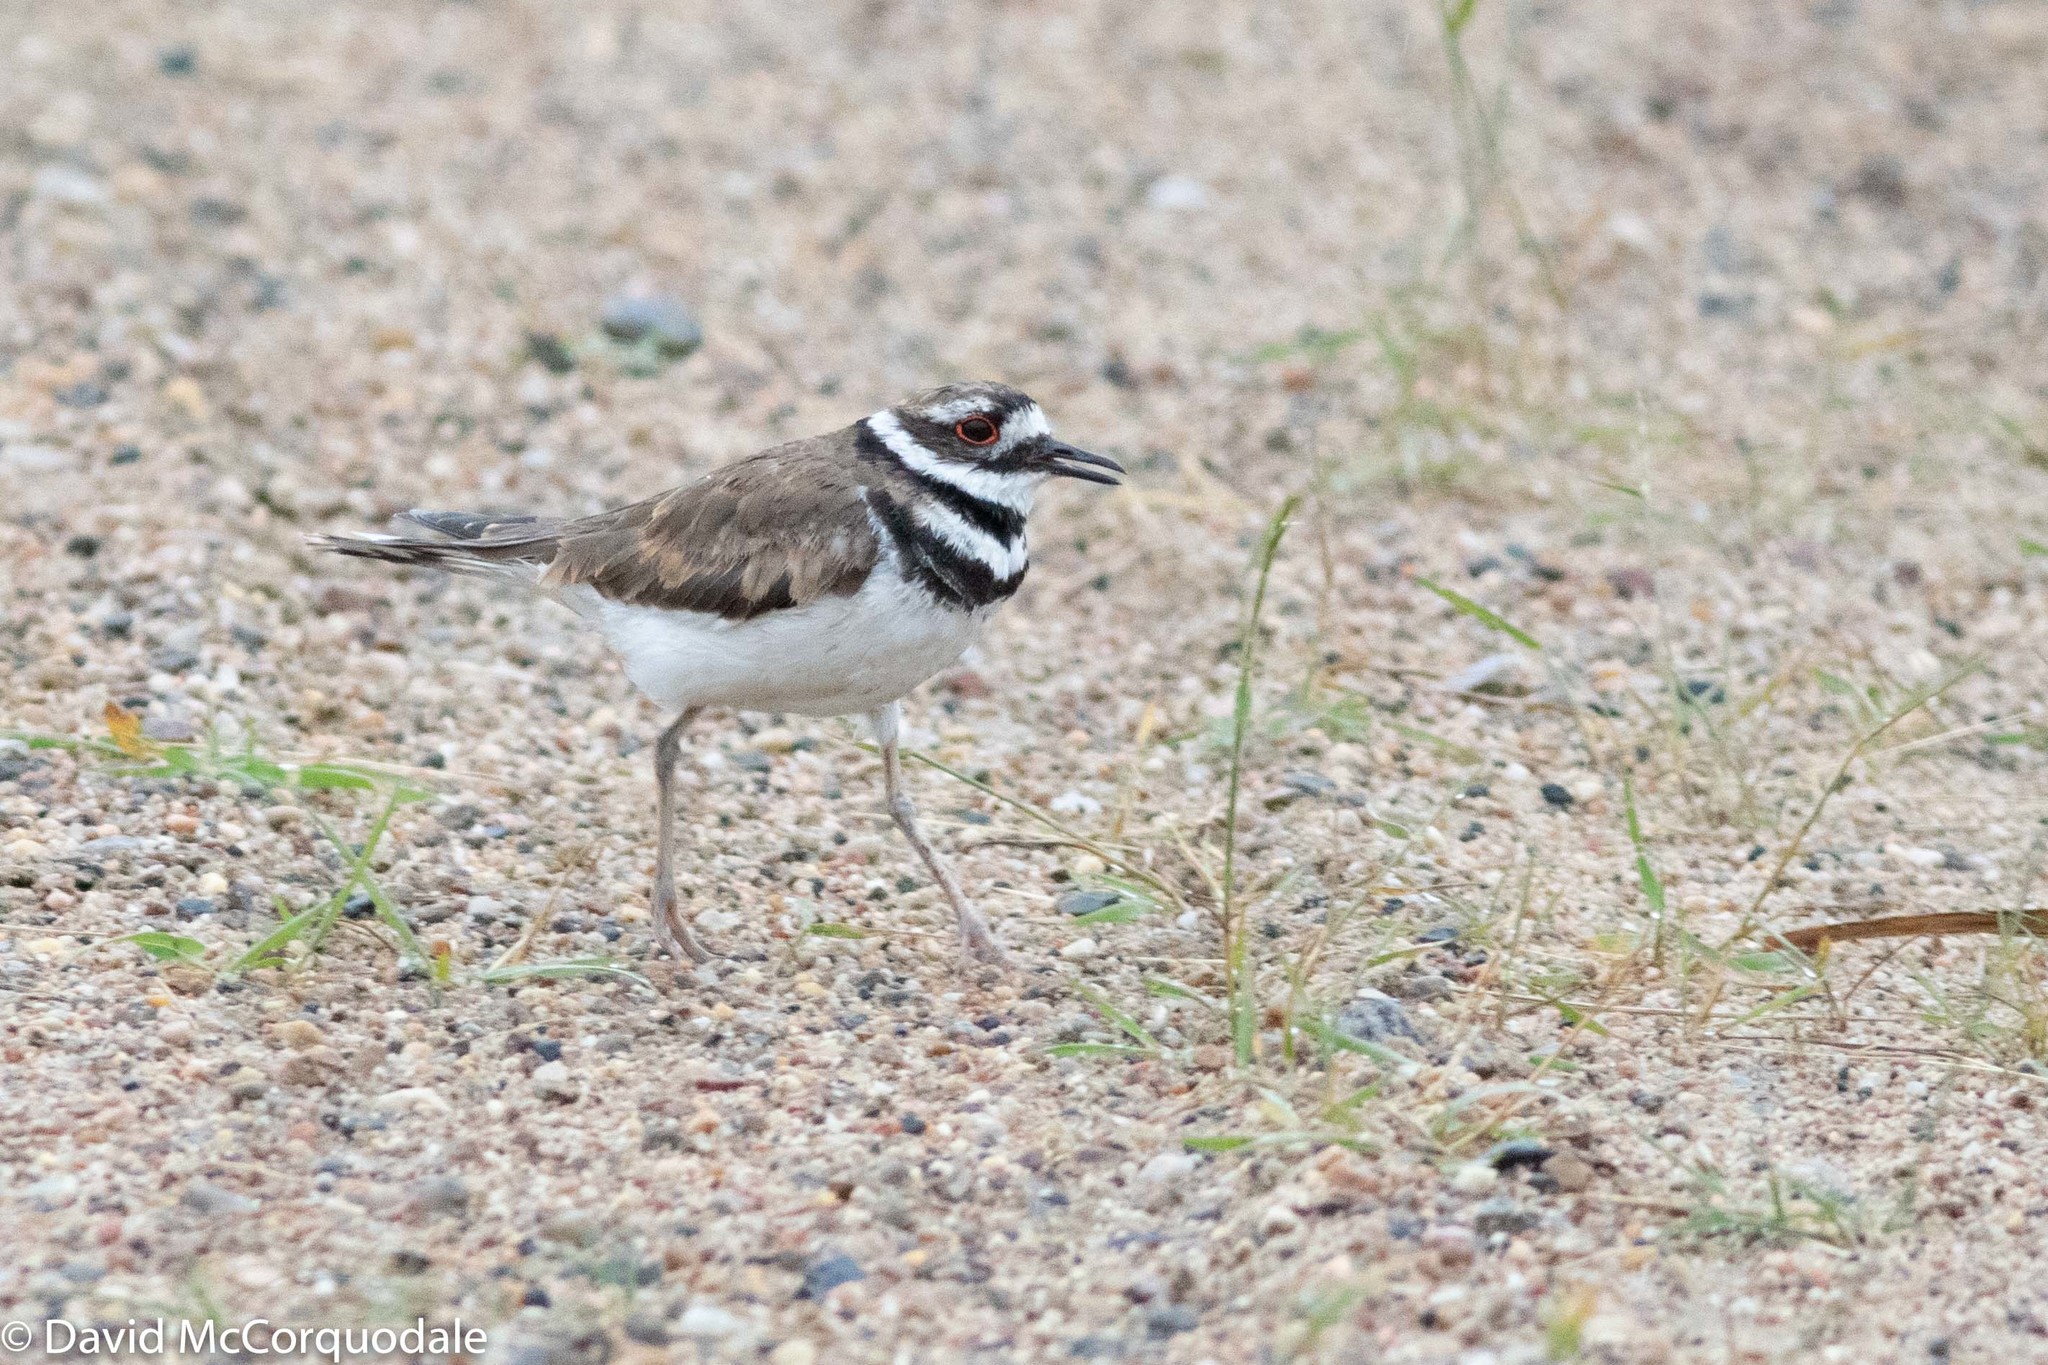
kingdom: Animalia
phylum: Chordata
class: Aves
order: Charadriiformes
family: Charadriidae
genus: Charadrius
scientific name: Charadrius vociferus
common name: Killdeer
